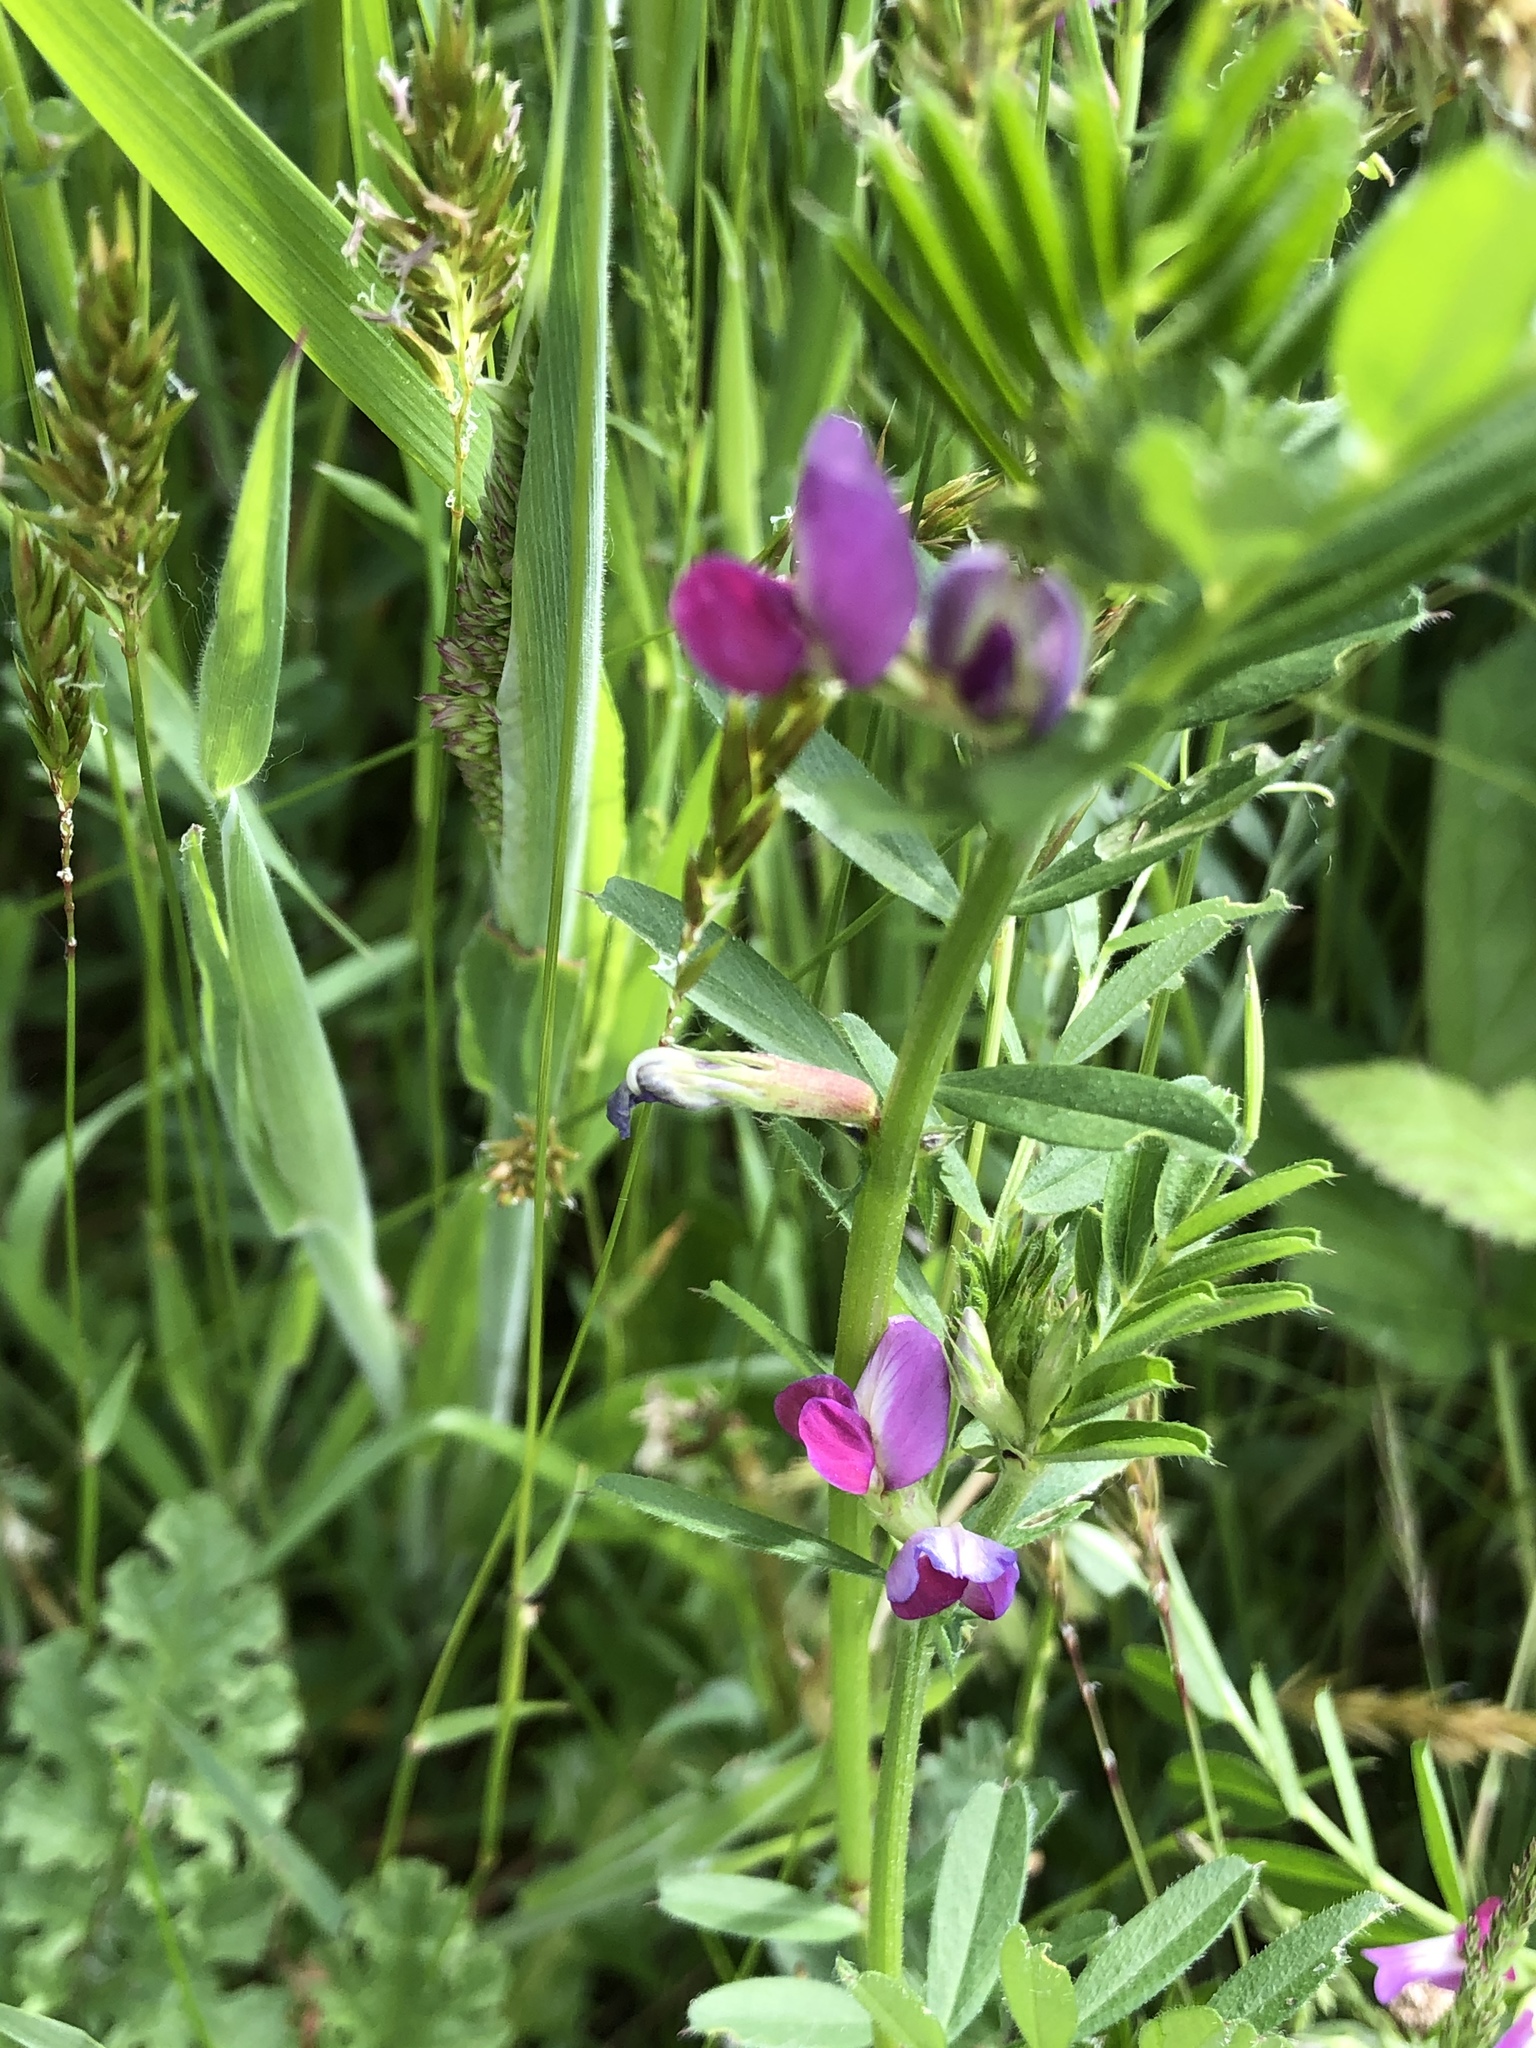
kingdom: Plantae
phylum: Tracheophyta
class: Magnoliopsida
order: Fabales
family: Fabaceae
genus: Vicia
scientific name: Vicia sativa
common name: Garden vetch
